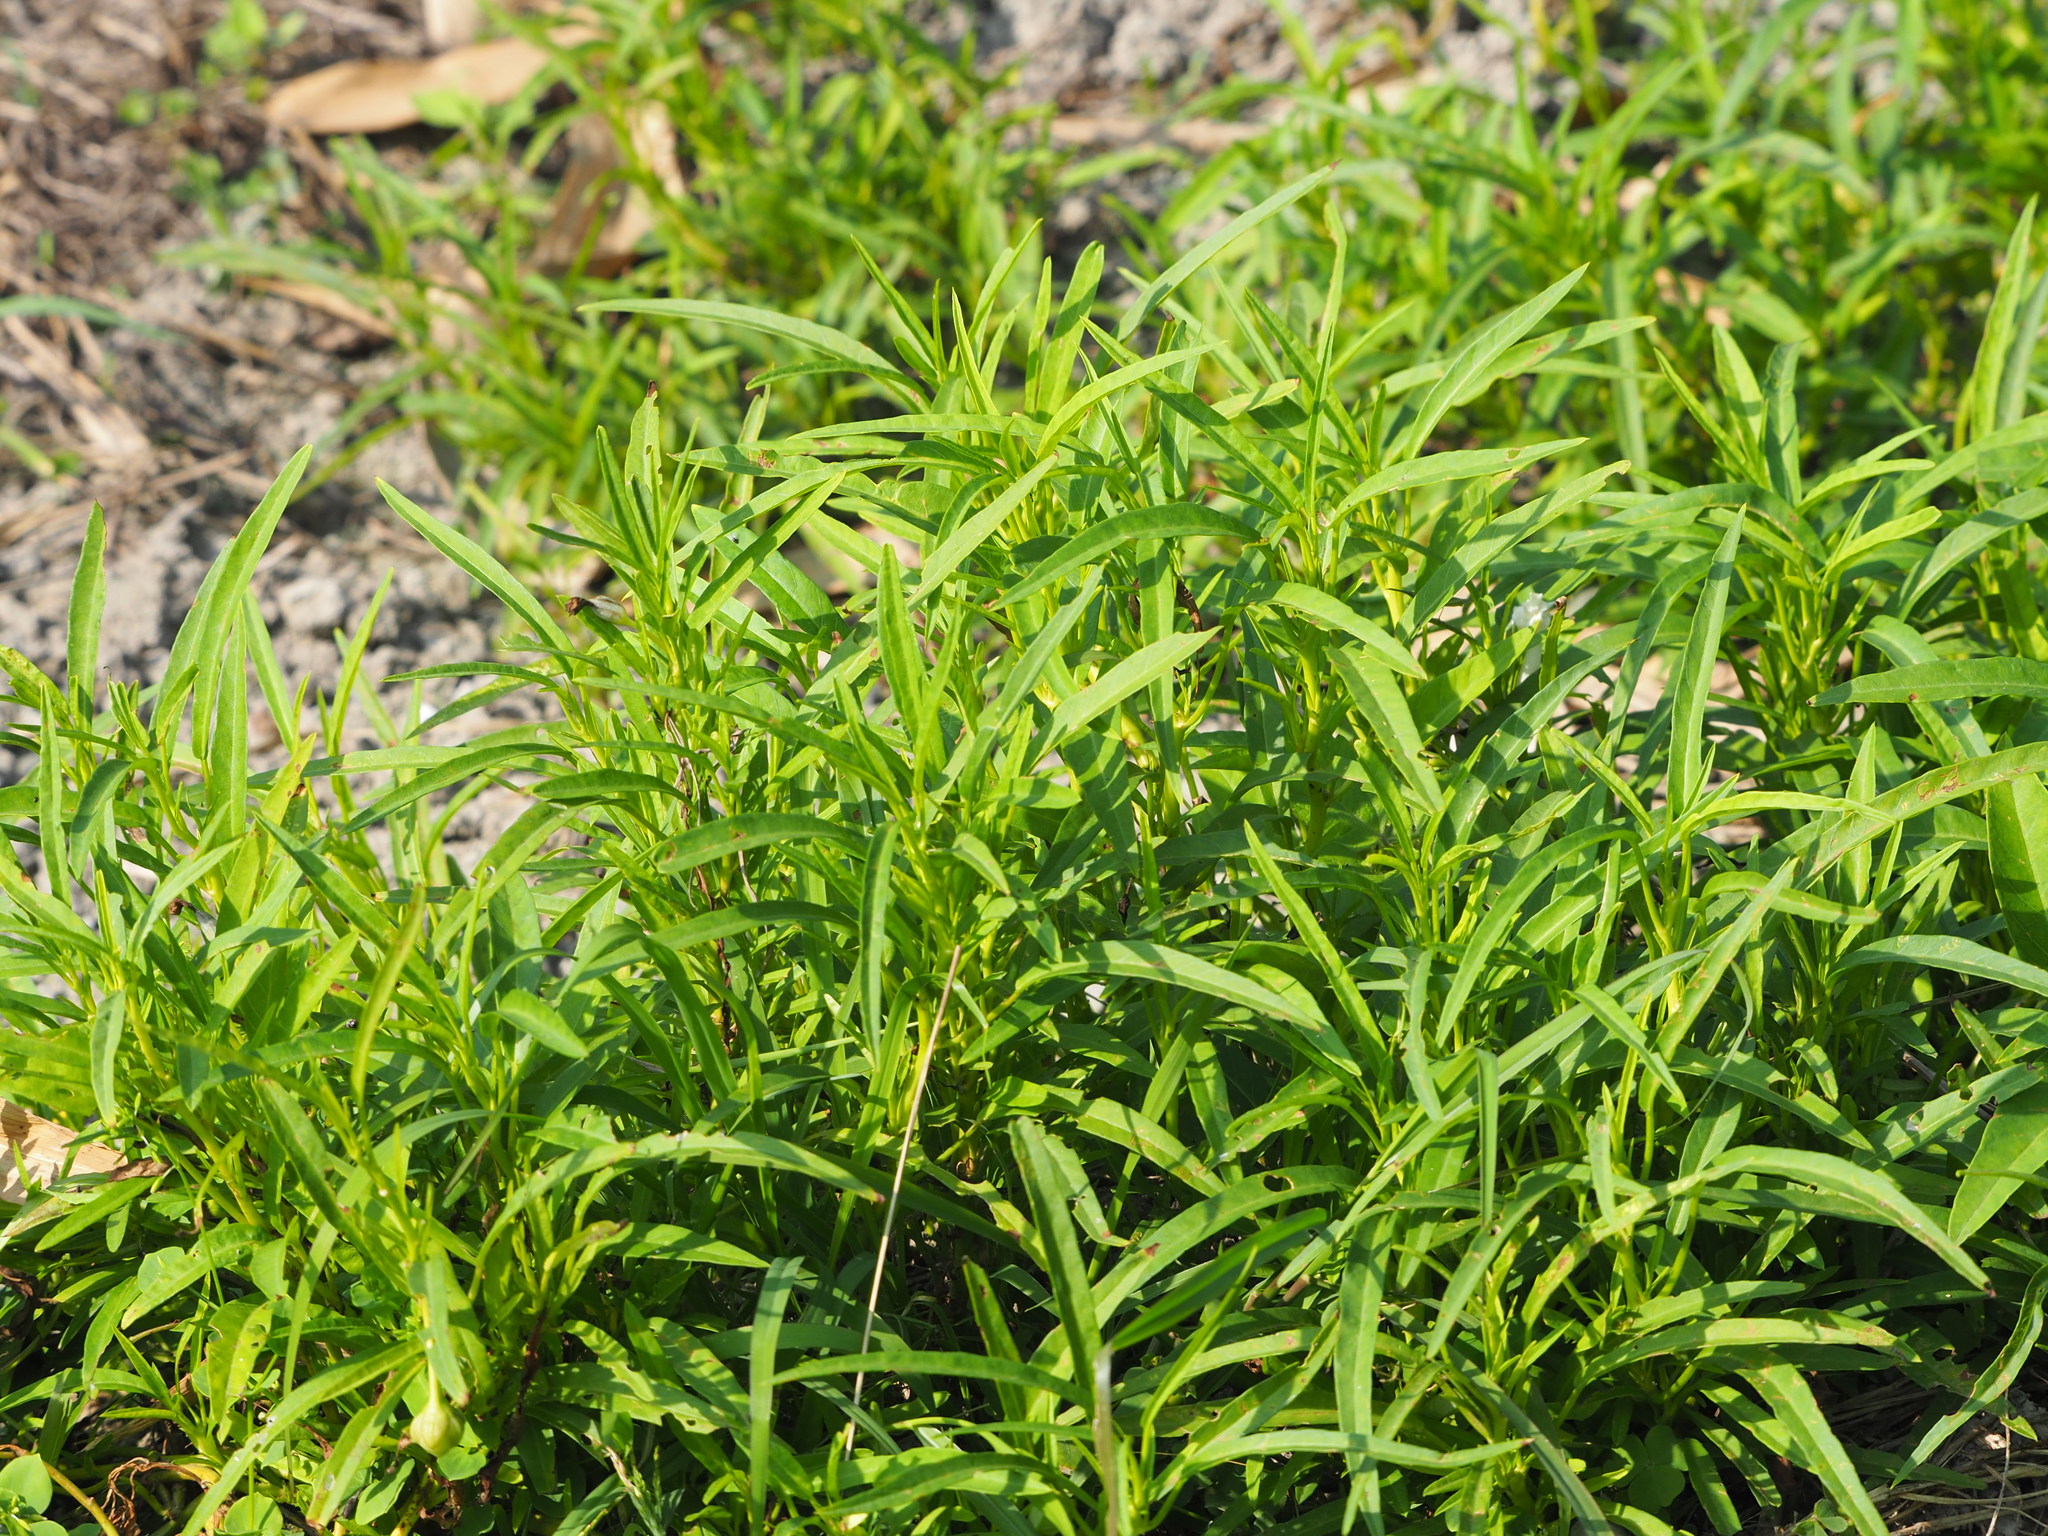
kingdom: Plantae
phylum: Tracheophyta
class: Magnoliopsida
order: Solanales
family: Convolvulaceae
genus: Ipomoea
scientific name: Ipomoea aquatica
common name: Swamp morning-glory
